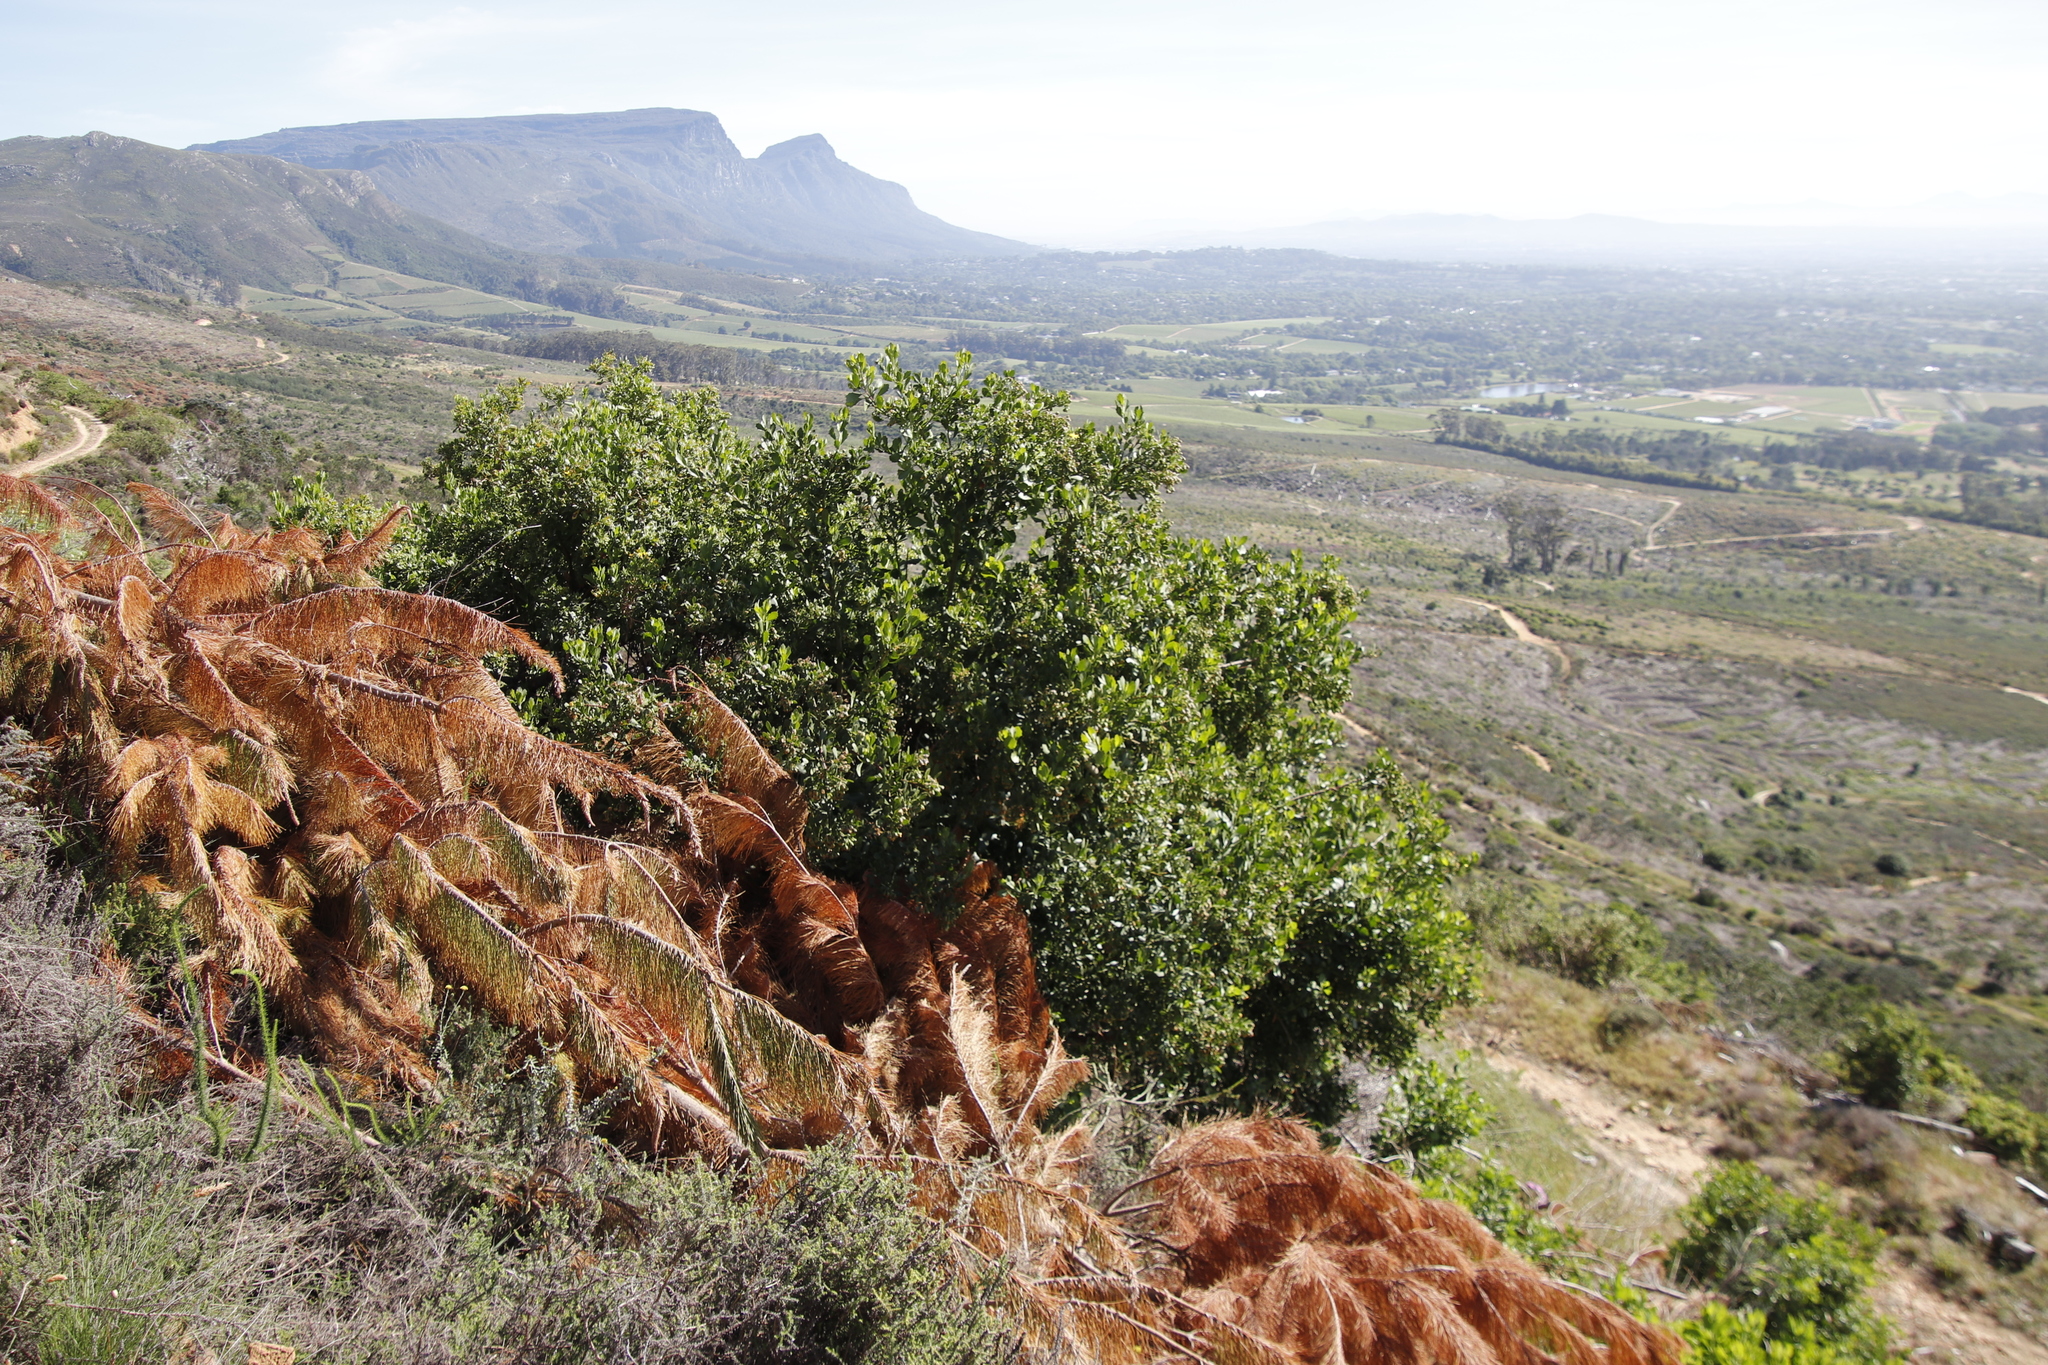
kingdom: Plantae
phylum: Tracheophyta
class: Magnoliopsida
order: Asterales
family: Asteraceae
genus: Osteospermum
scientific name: Osteospermum moniliferum
